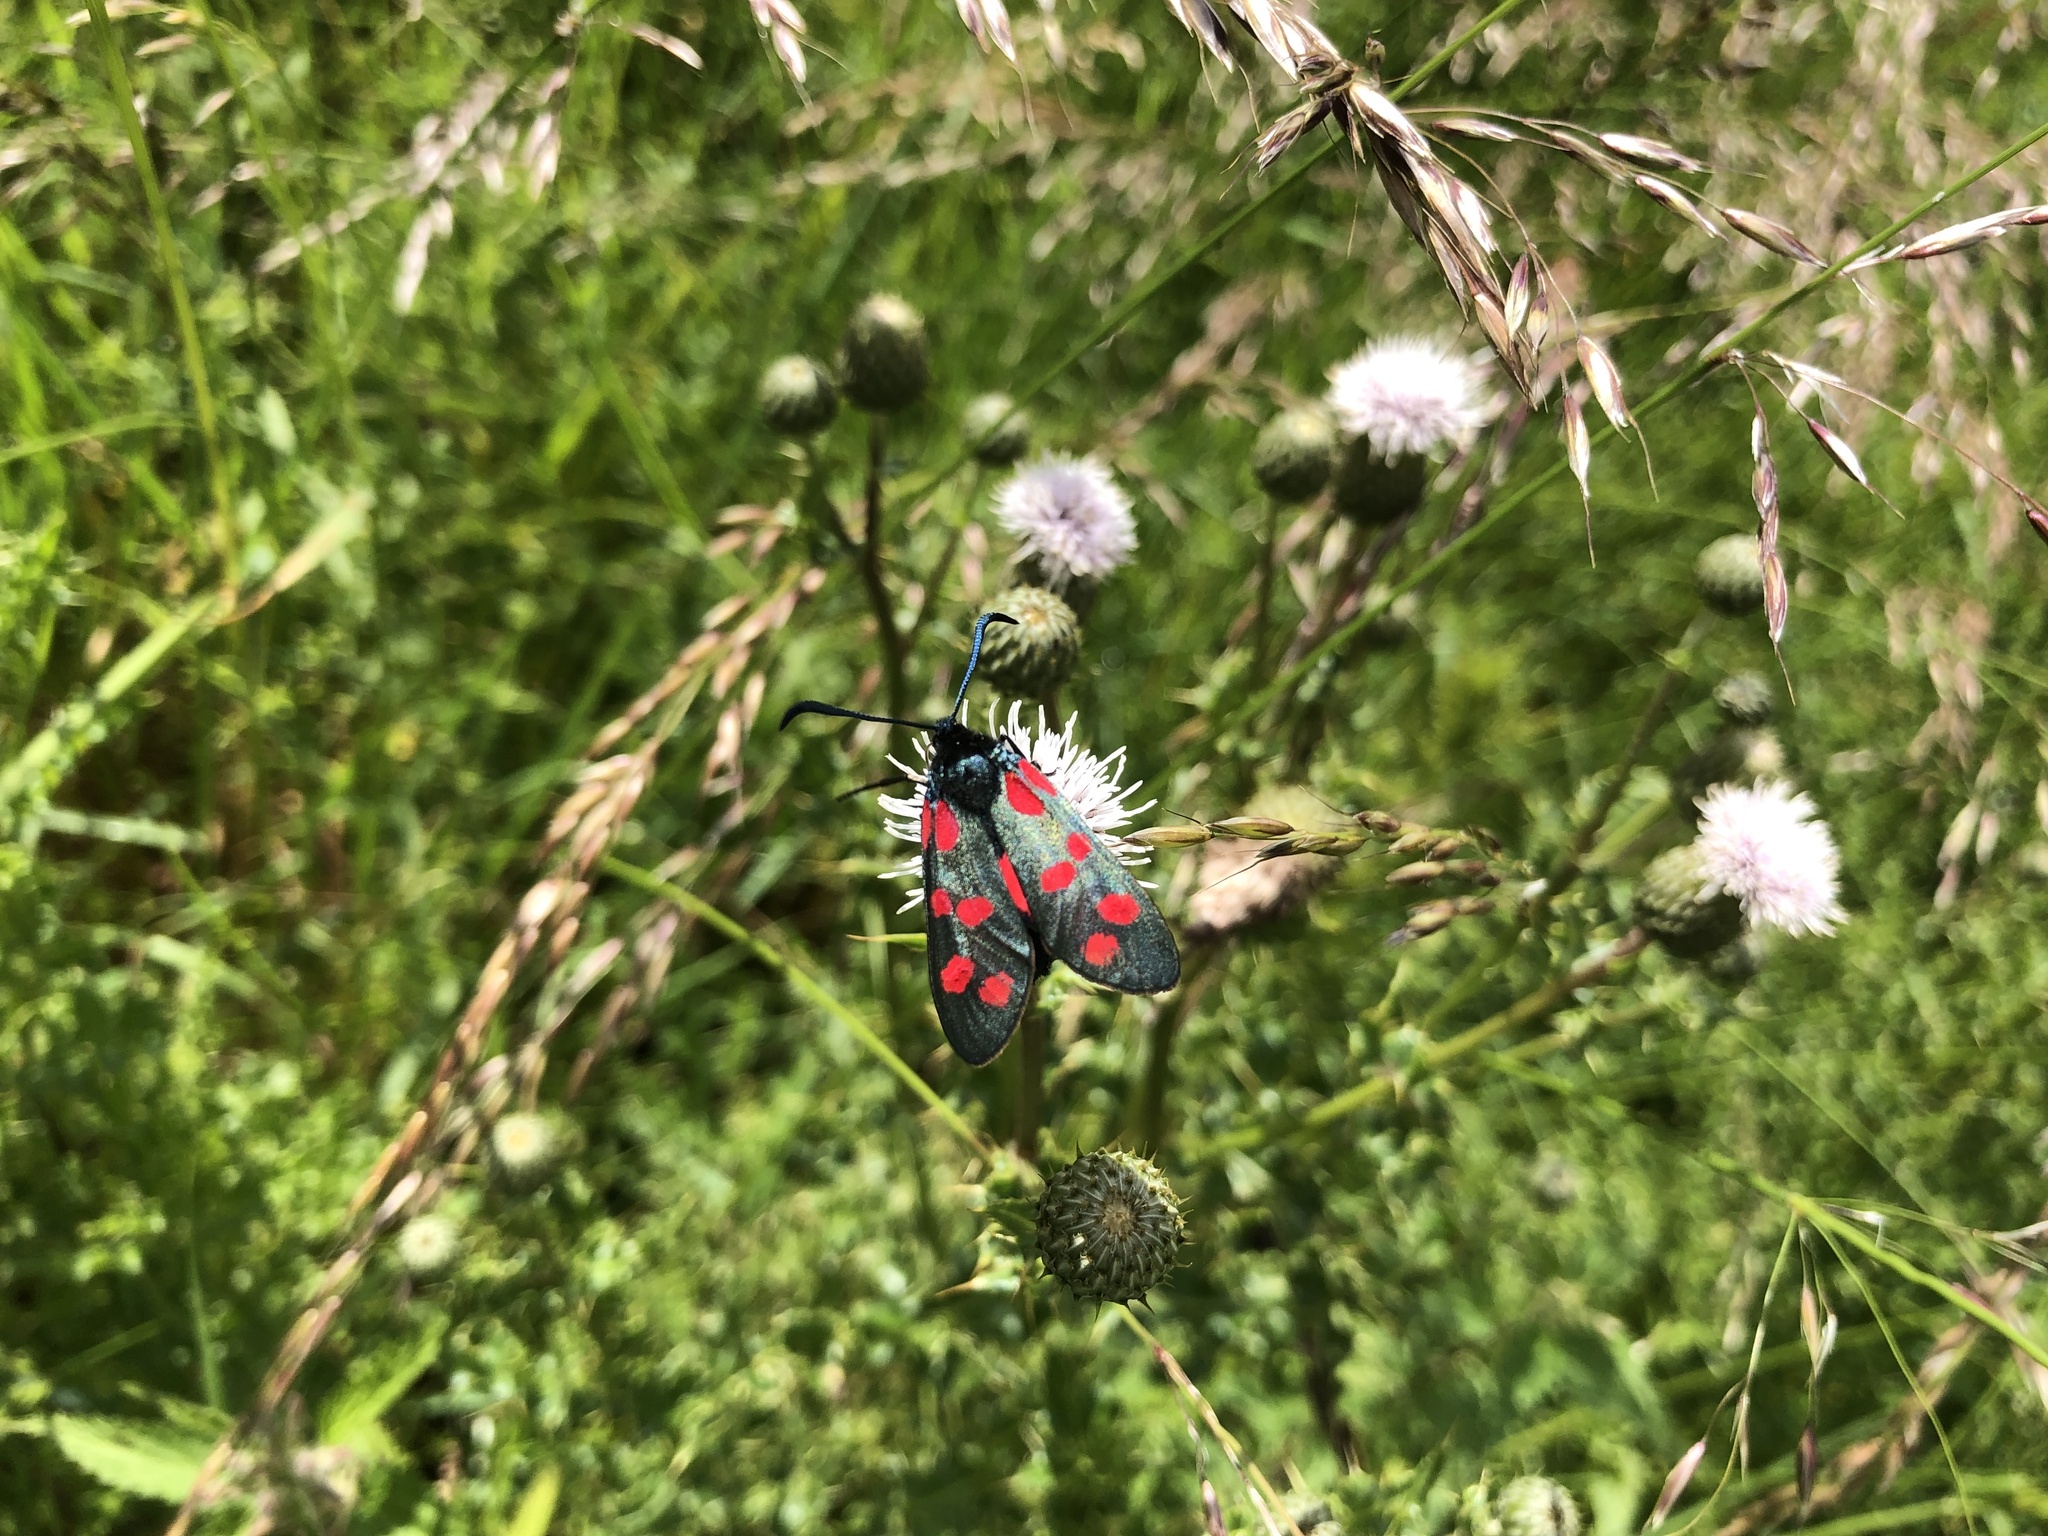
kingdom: Animalia
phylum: Arthropoda
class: Insecta
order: Lepidoptera
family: Zygaenidae
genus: Zygaena
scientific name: Zygaena filipendulae
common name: Six-spot burnet
